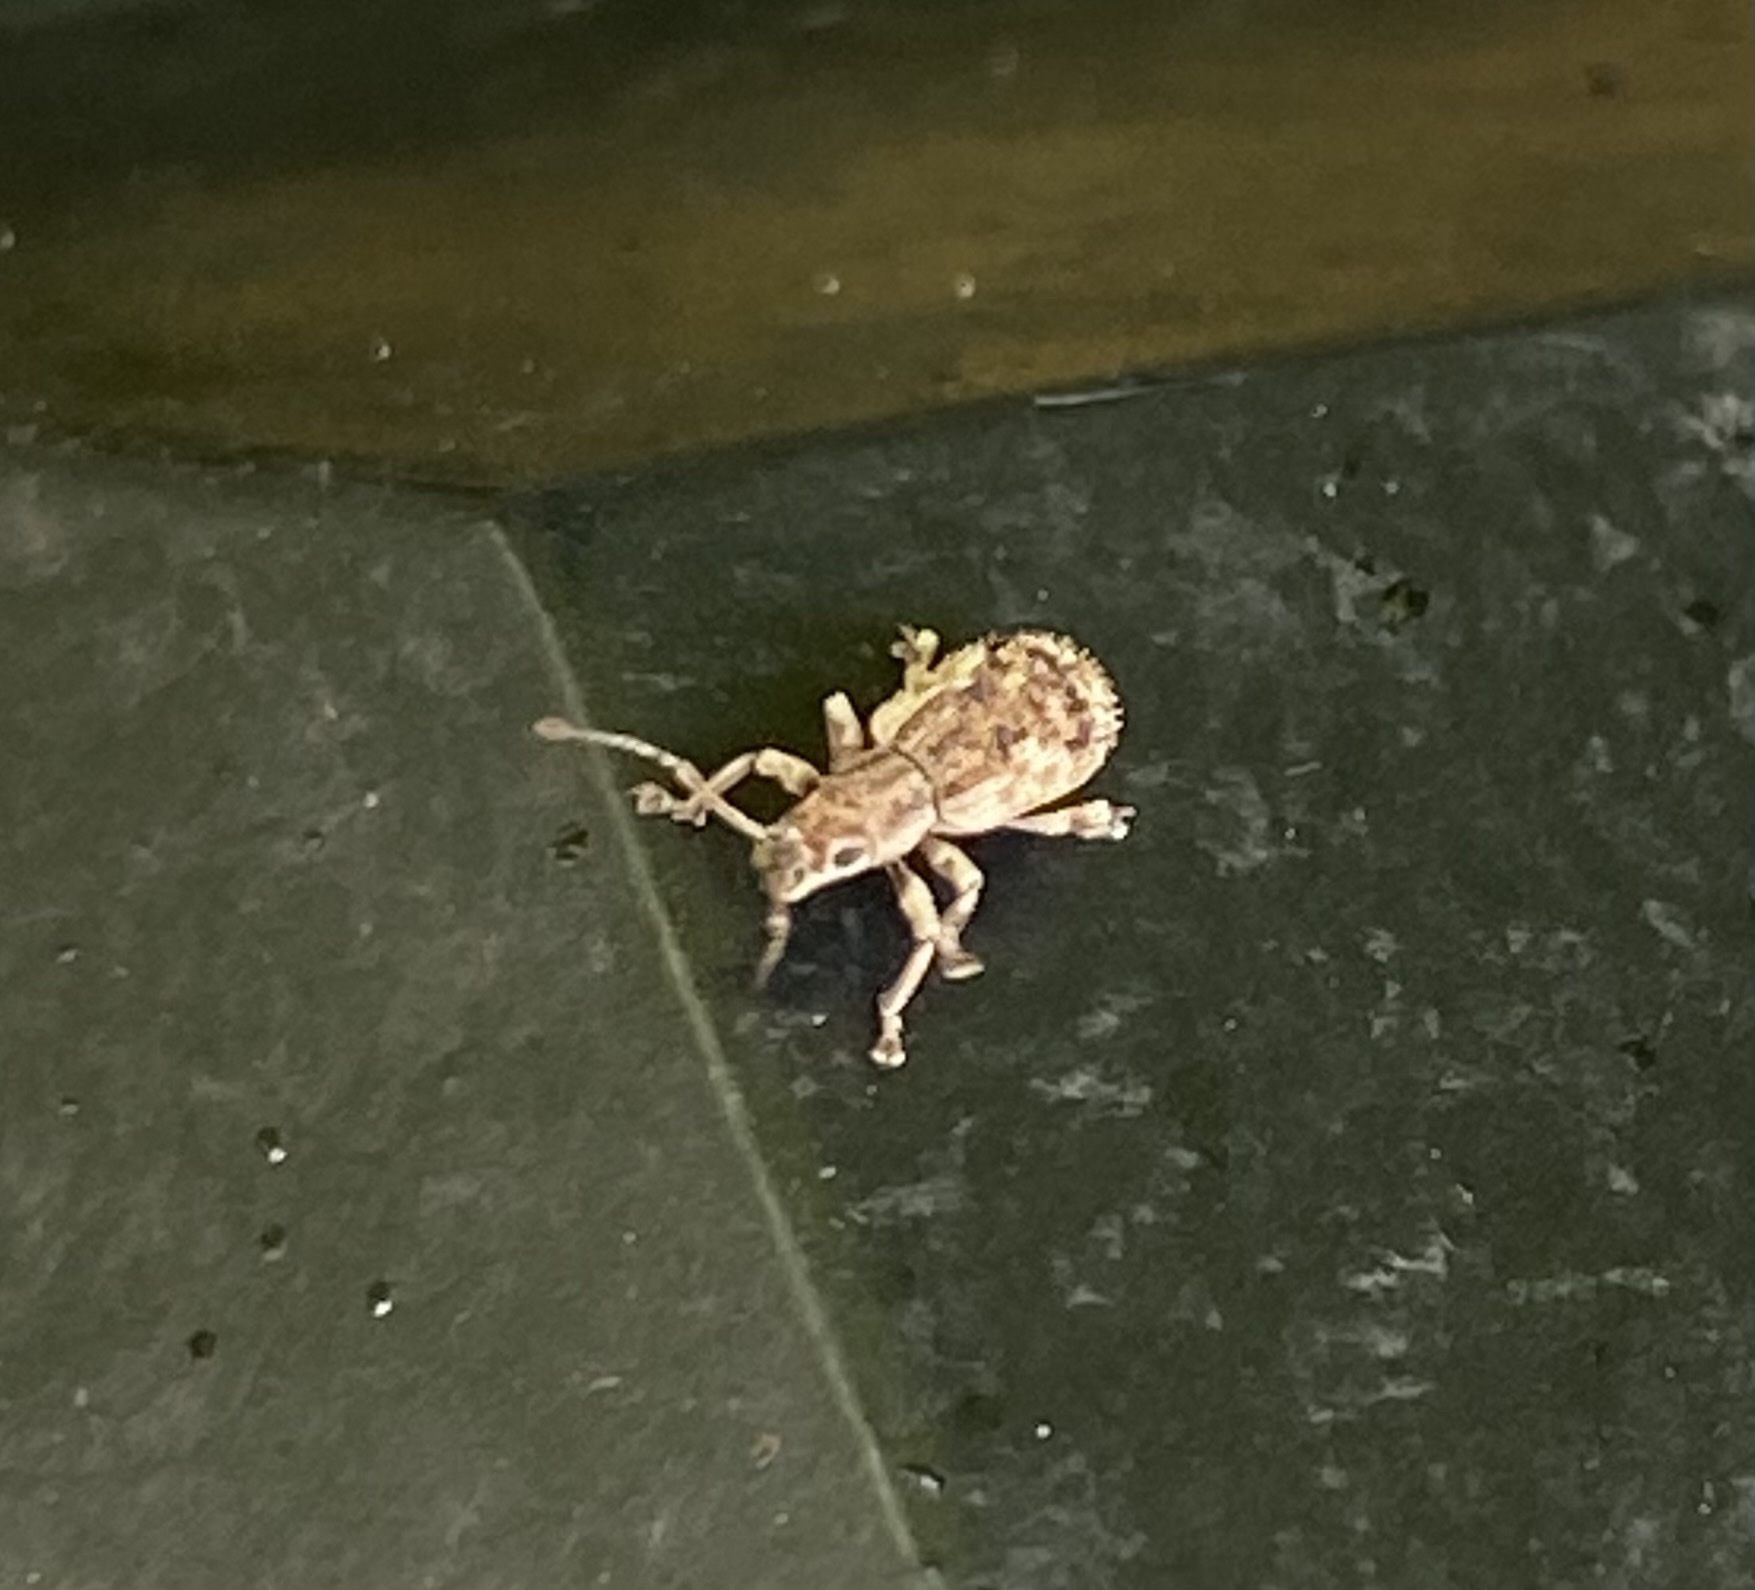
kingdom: Animalia
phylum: Arthropoda
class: Insecta
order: Coleoptera
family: Curculionidae
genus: Pseudoedophrys
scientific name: Pseudoedophrys hilleri
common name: Weevil
